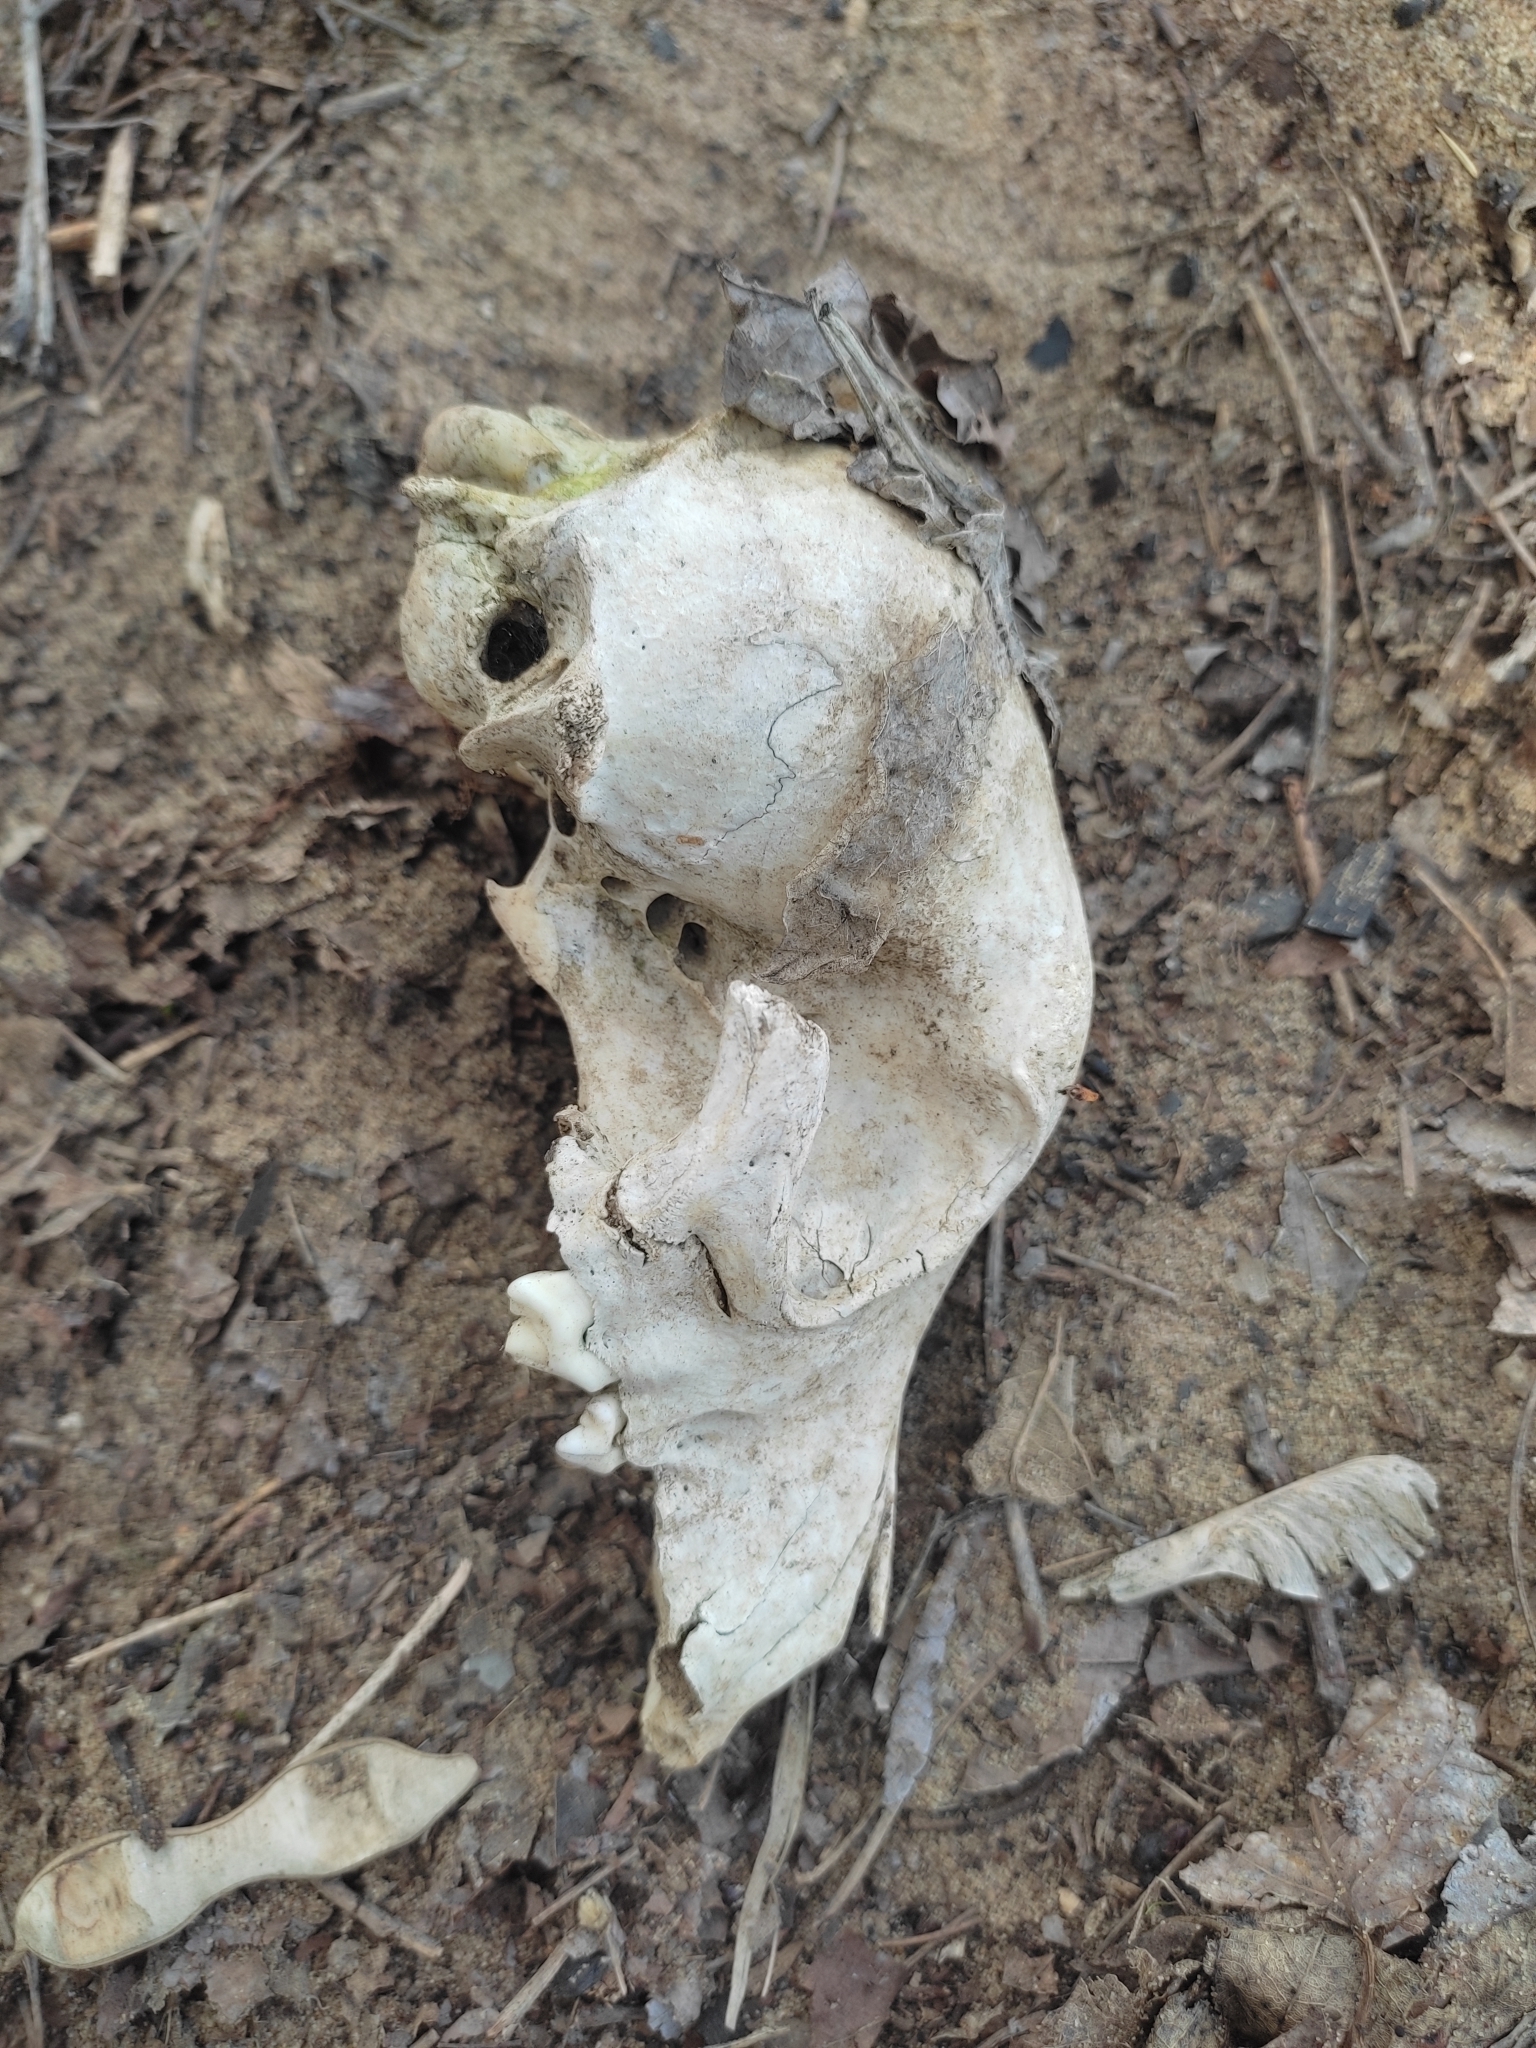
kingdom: Animalia
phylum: Chordata
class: Mammalia
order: Carnivora
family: Canidae
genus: Canis
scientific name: Canis lupus
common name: Gray wolf
